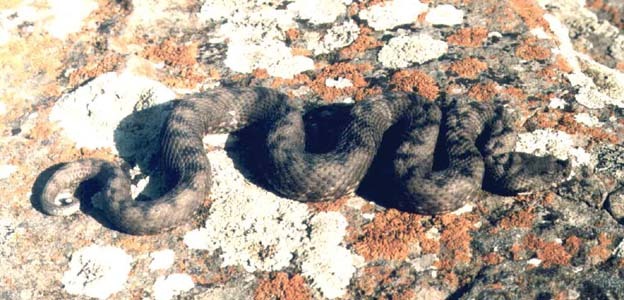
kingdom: Animalia
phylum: Chordata
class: Squamata
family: Viperidae
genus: Vipera
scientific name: Vipera transcaucasiana
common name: Transcaucasian long-nosed viper
